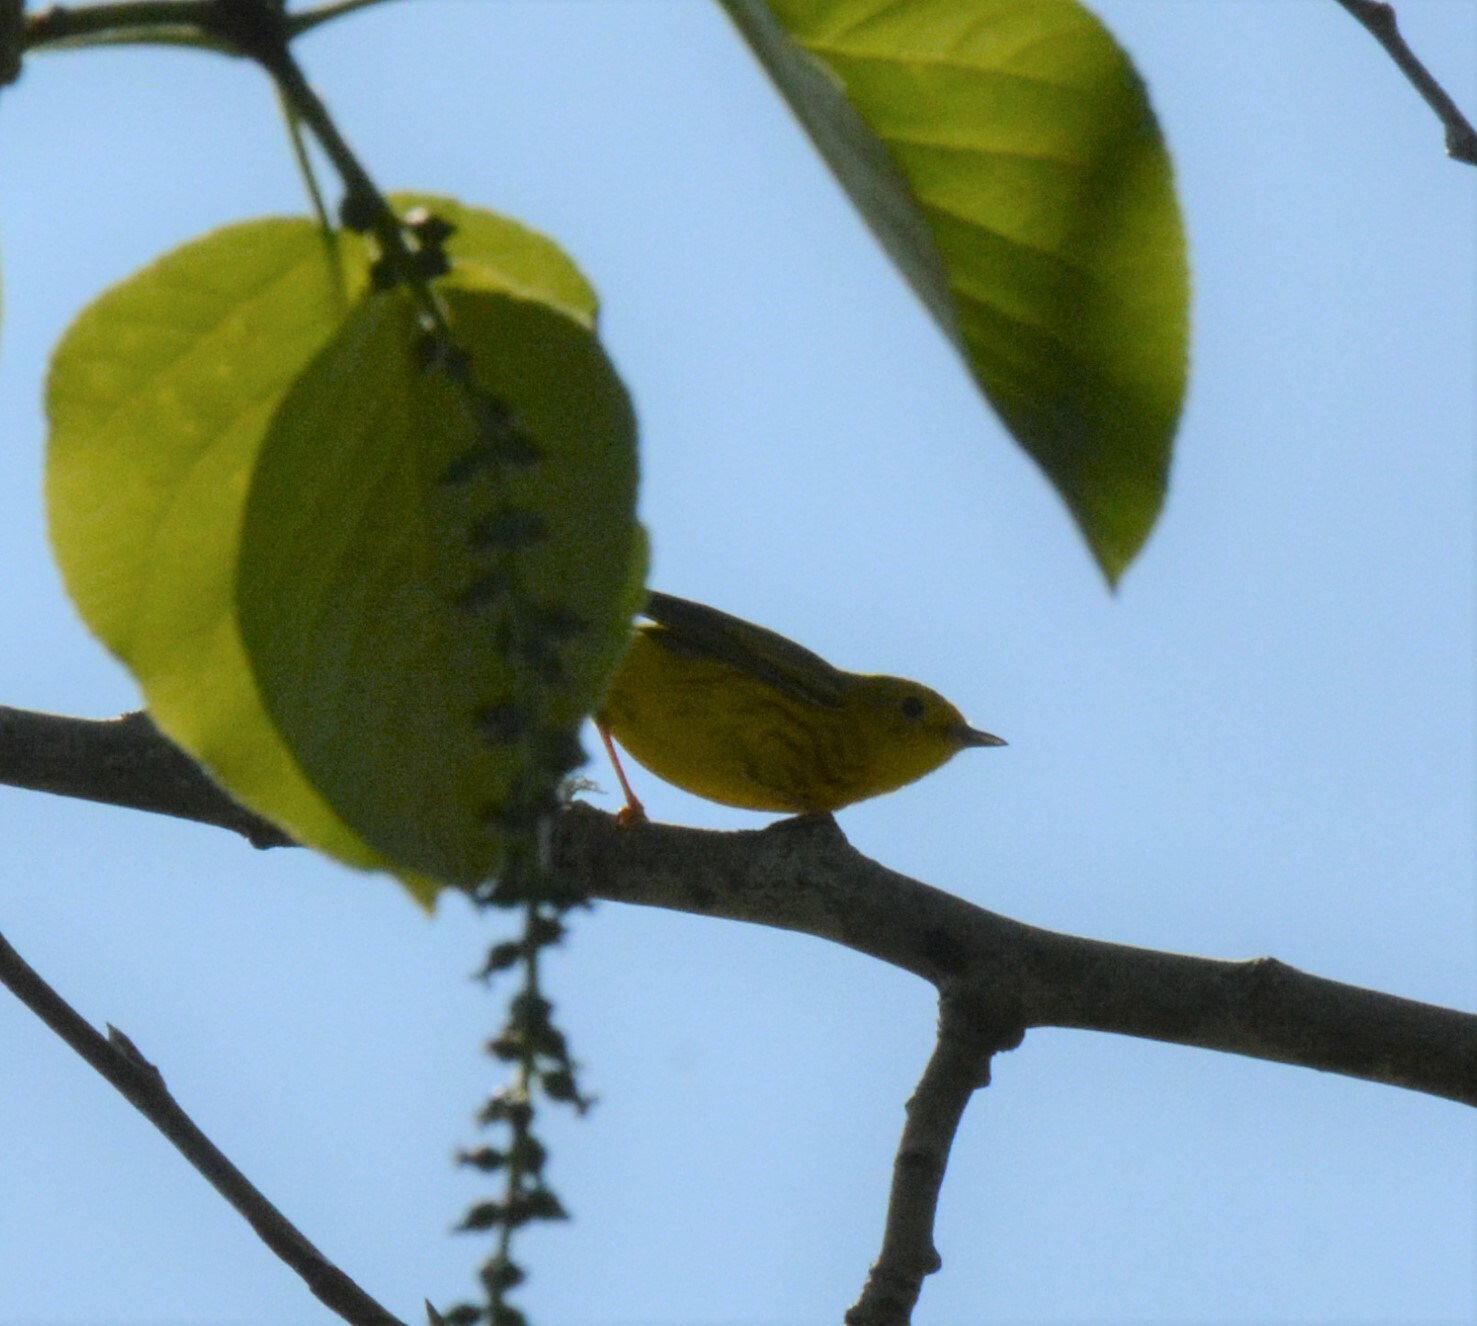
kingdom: Animalia
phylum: Chordata
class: Aves
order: Passeriformes
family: Parulidae
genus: Setophaga
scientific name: Setophaga petechia
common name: Yellow warbler
